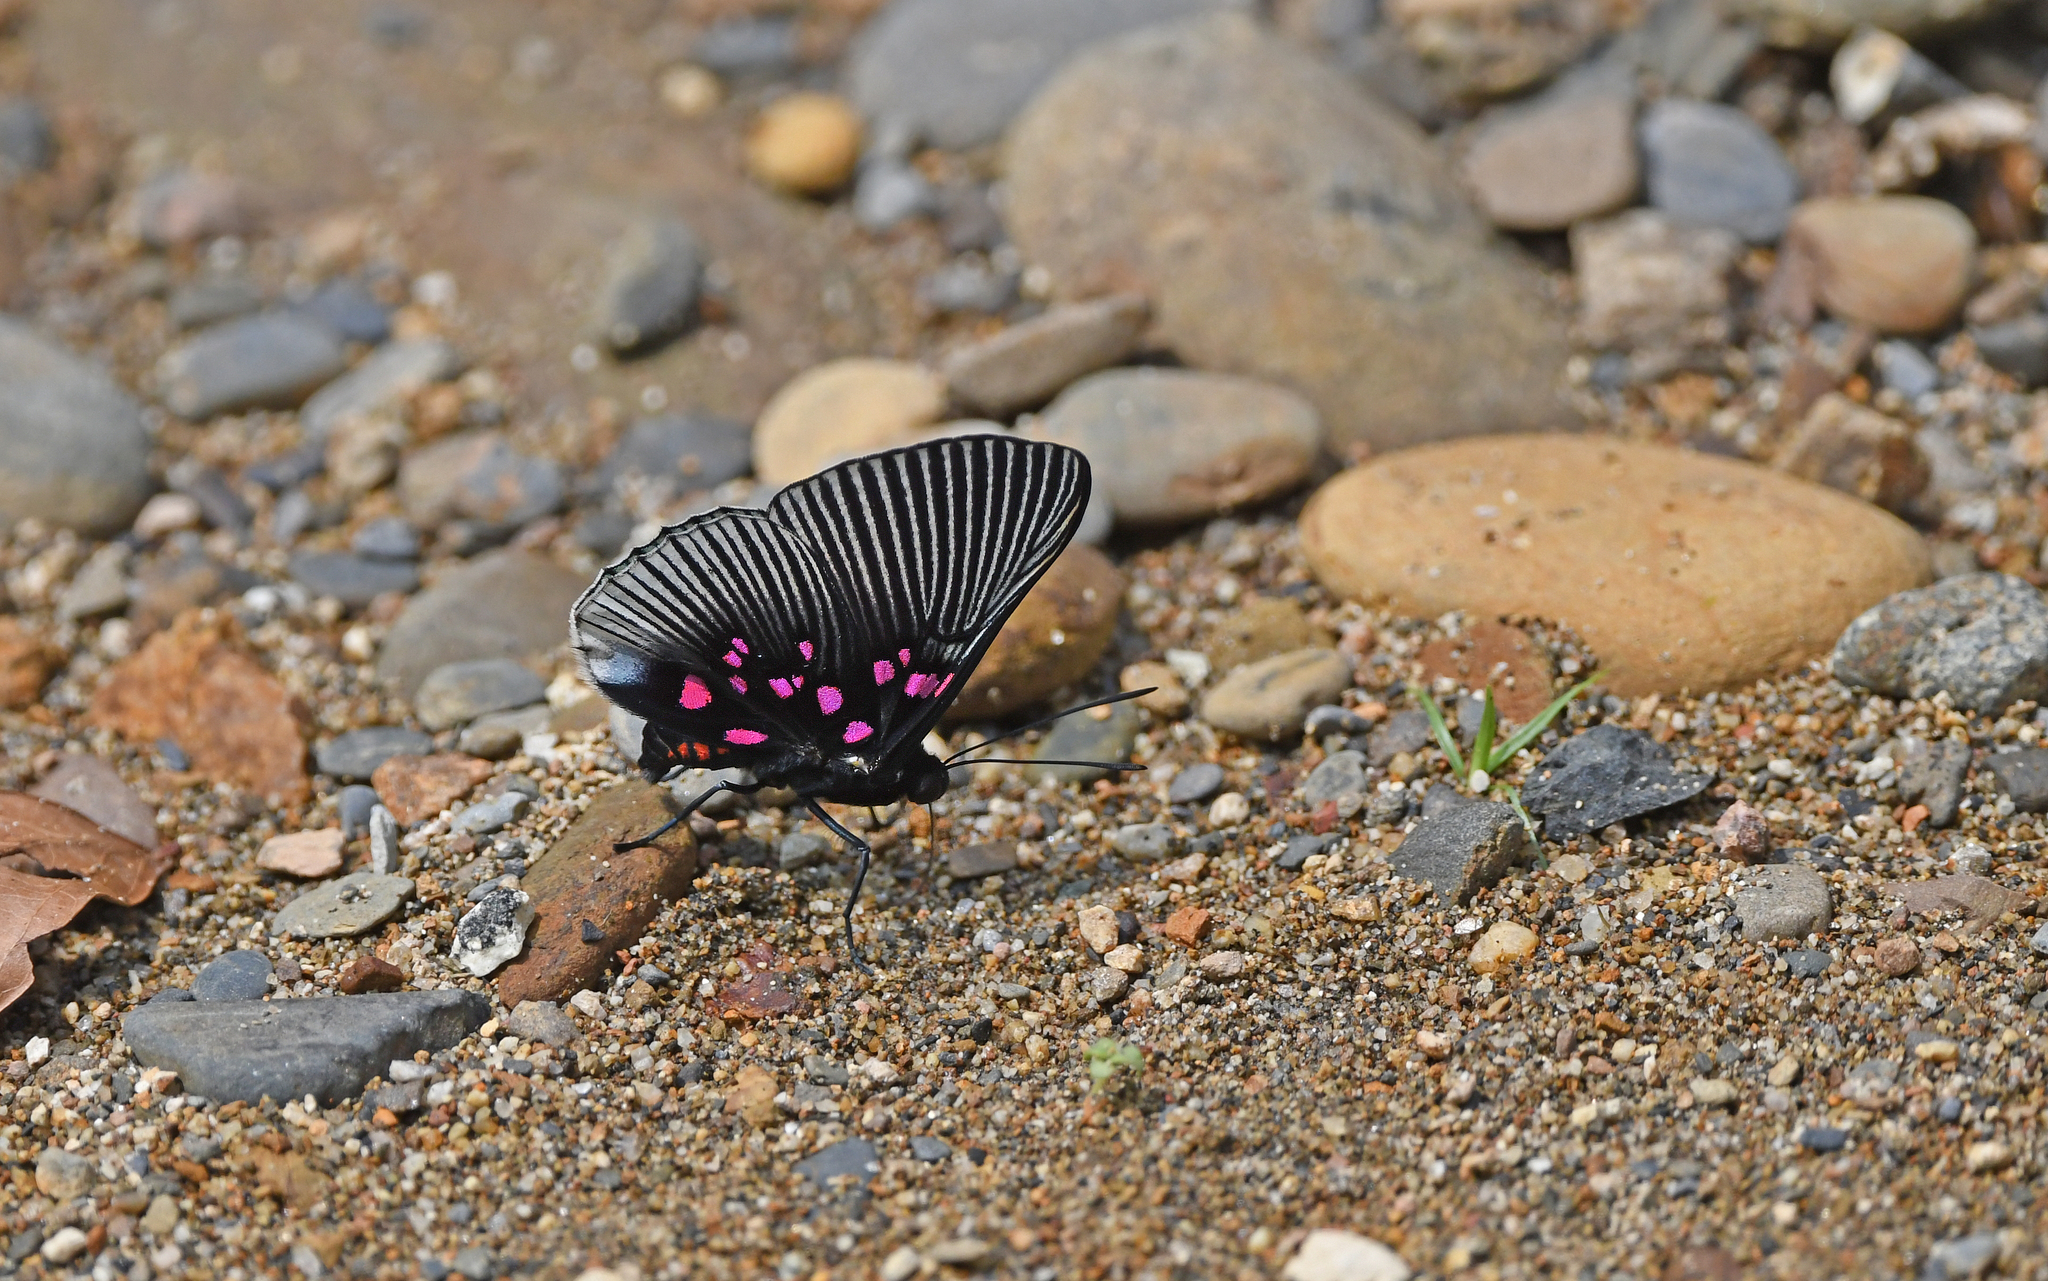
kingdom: Animalia
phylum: Arthropoda
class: Insecta
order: Lepidoptera
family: Riodinidae
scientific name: Riodinidae
